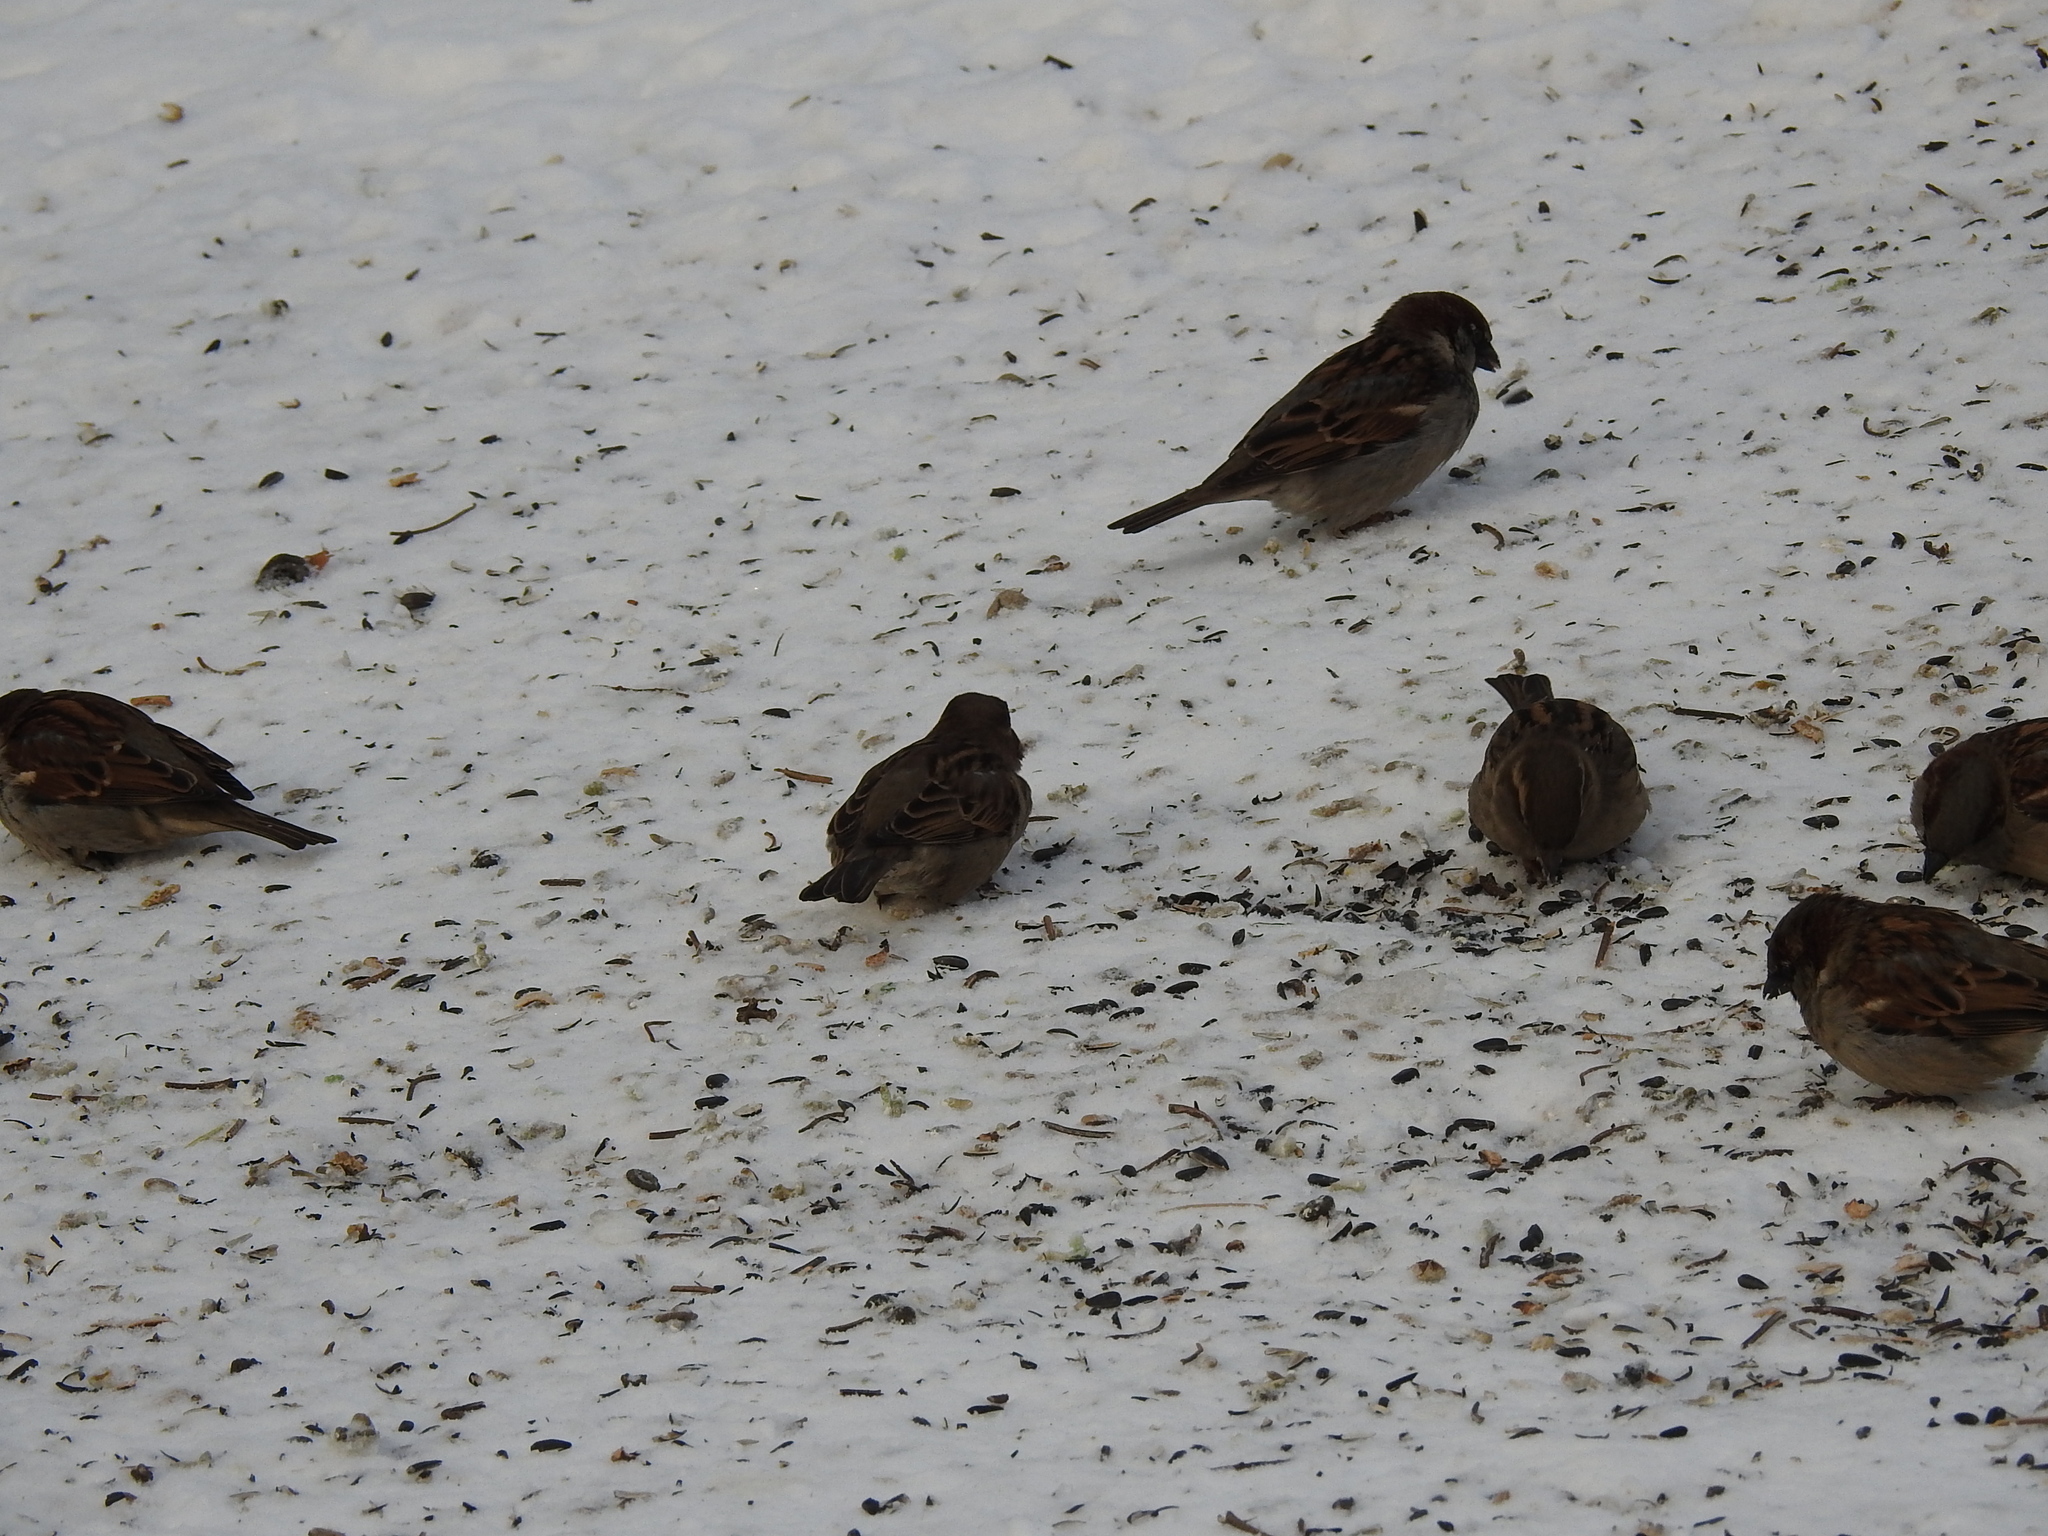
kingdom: Animalia
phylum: Chordata
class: Aves
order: Passeriformes
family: Passeridae
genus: Passer
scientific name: Passer domesticus
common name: House sparrow
